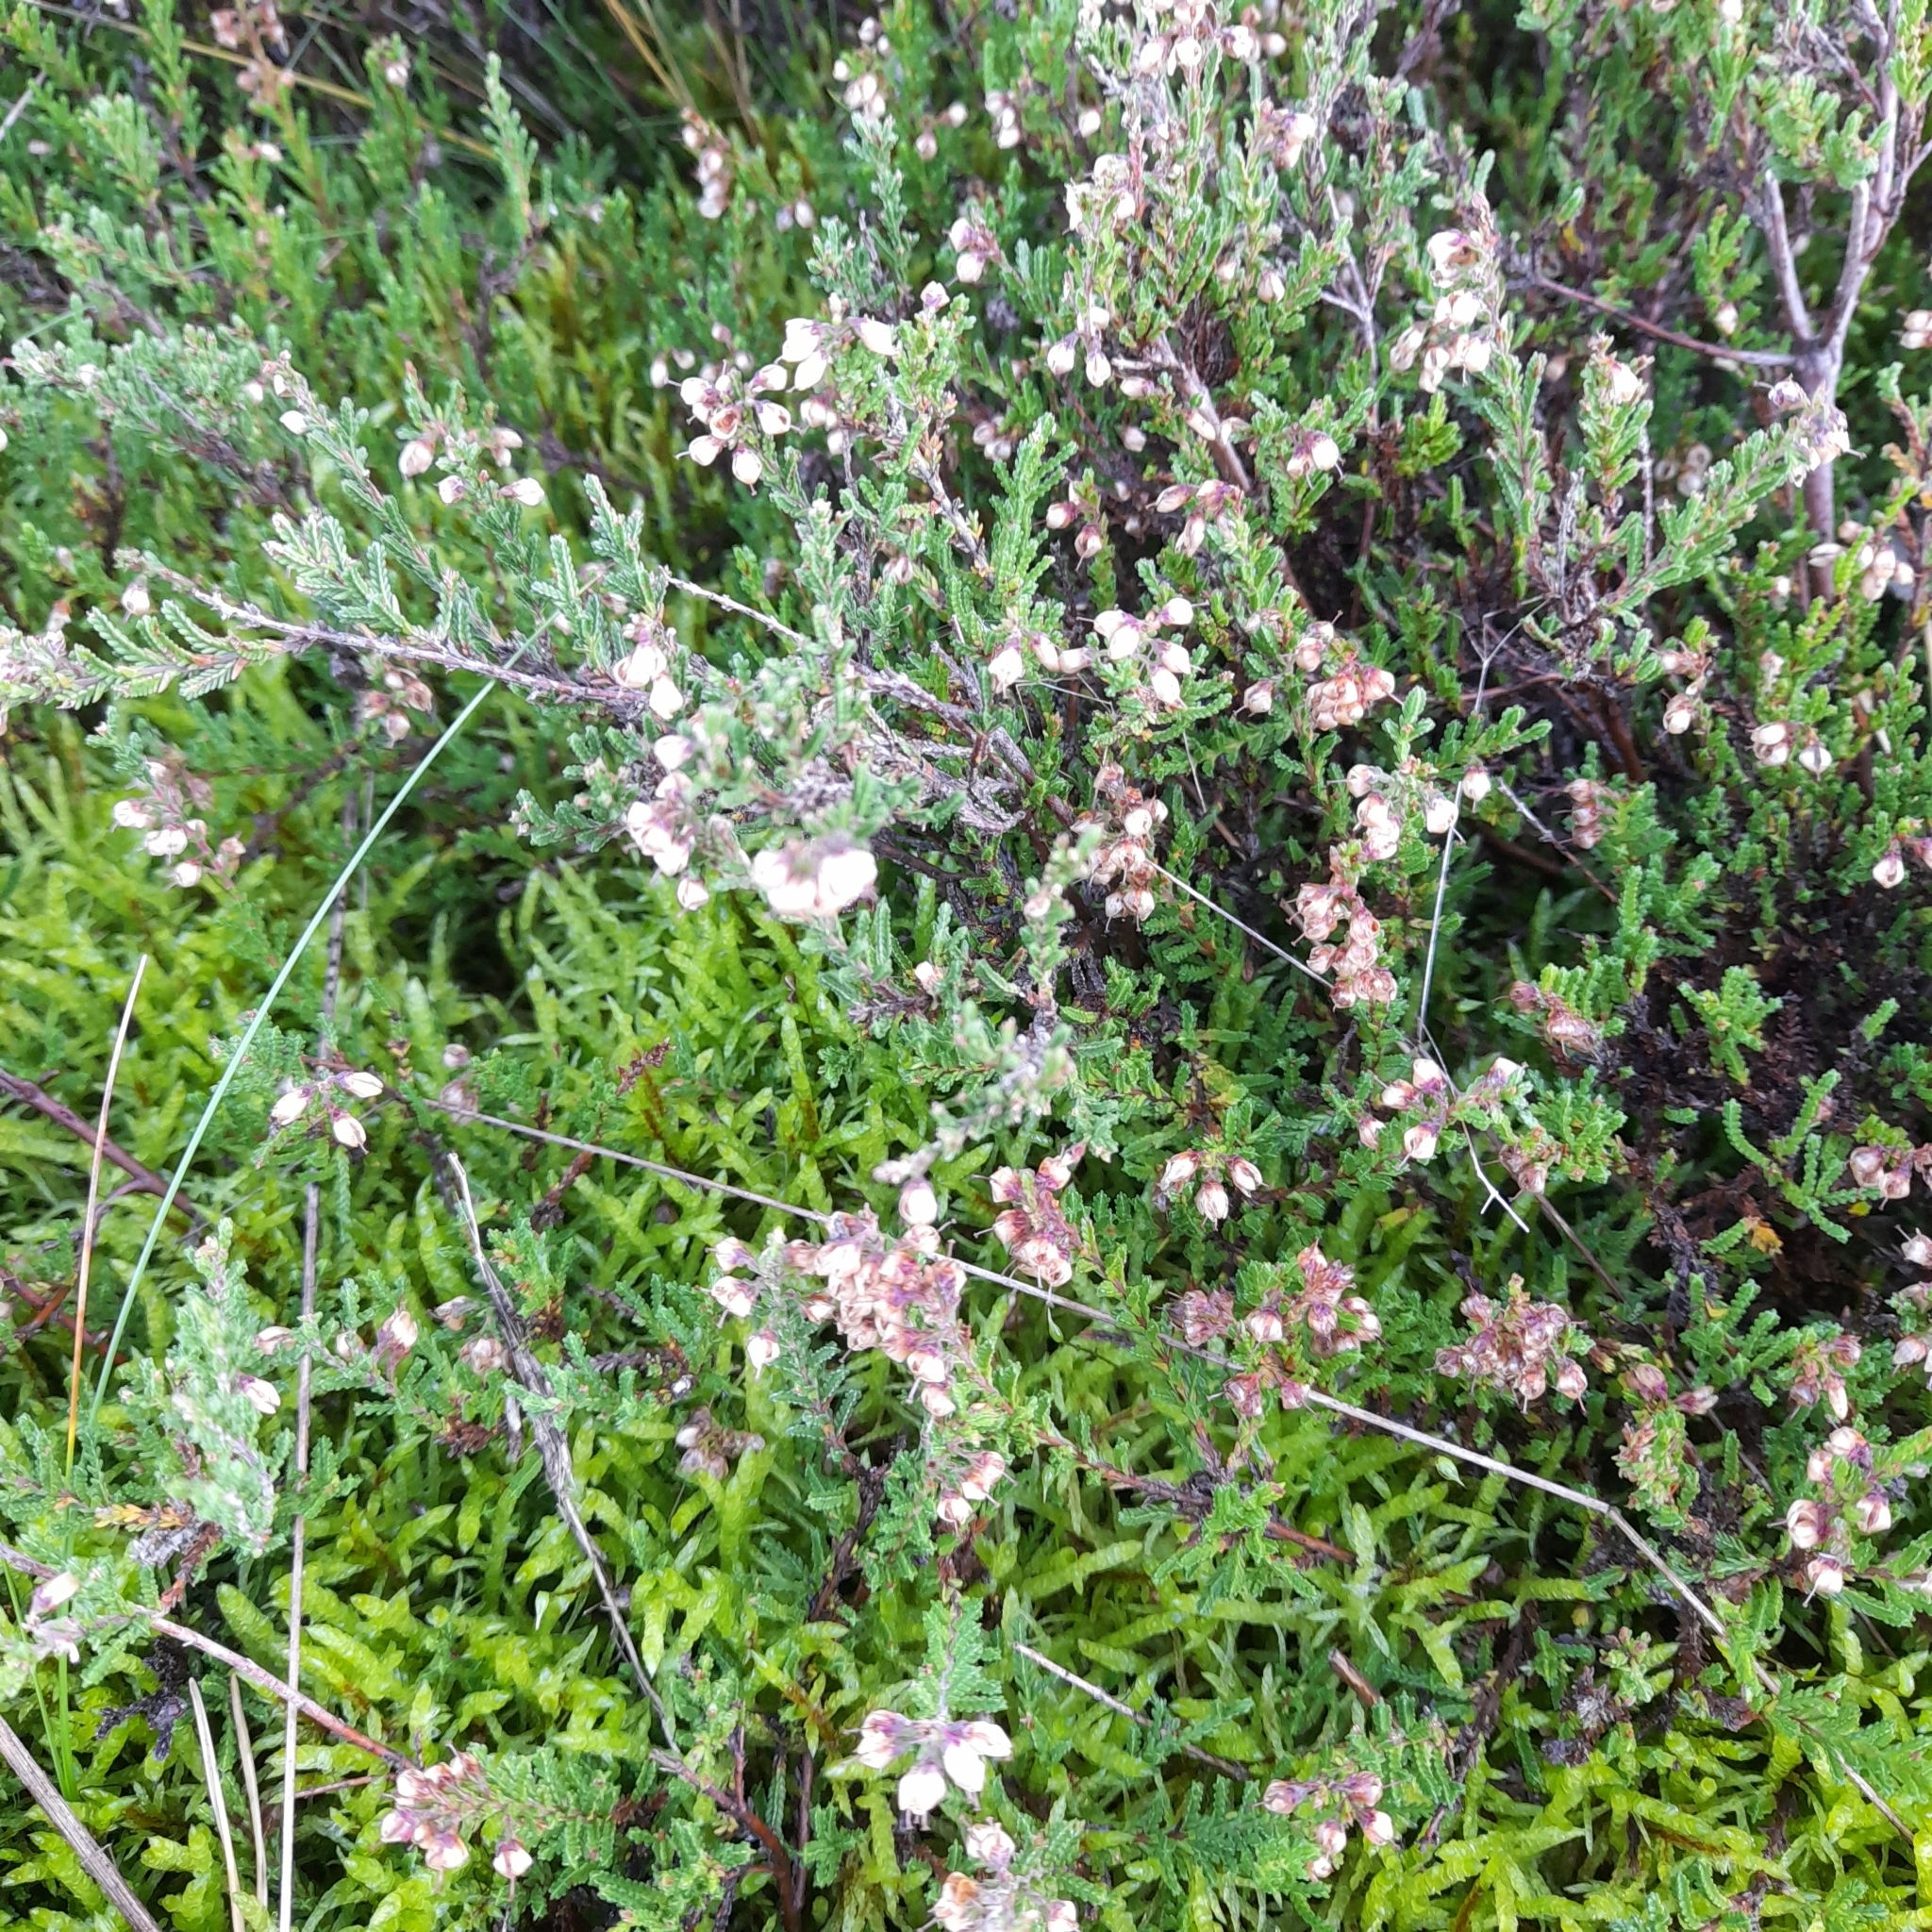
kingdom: Plantae
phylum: Tracheophyta
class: Magnoliopsida
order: Ericales
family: Ericaceae
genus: Calluna
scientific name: Calluna vulgaris
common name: Heather
